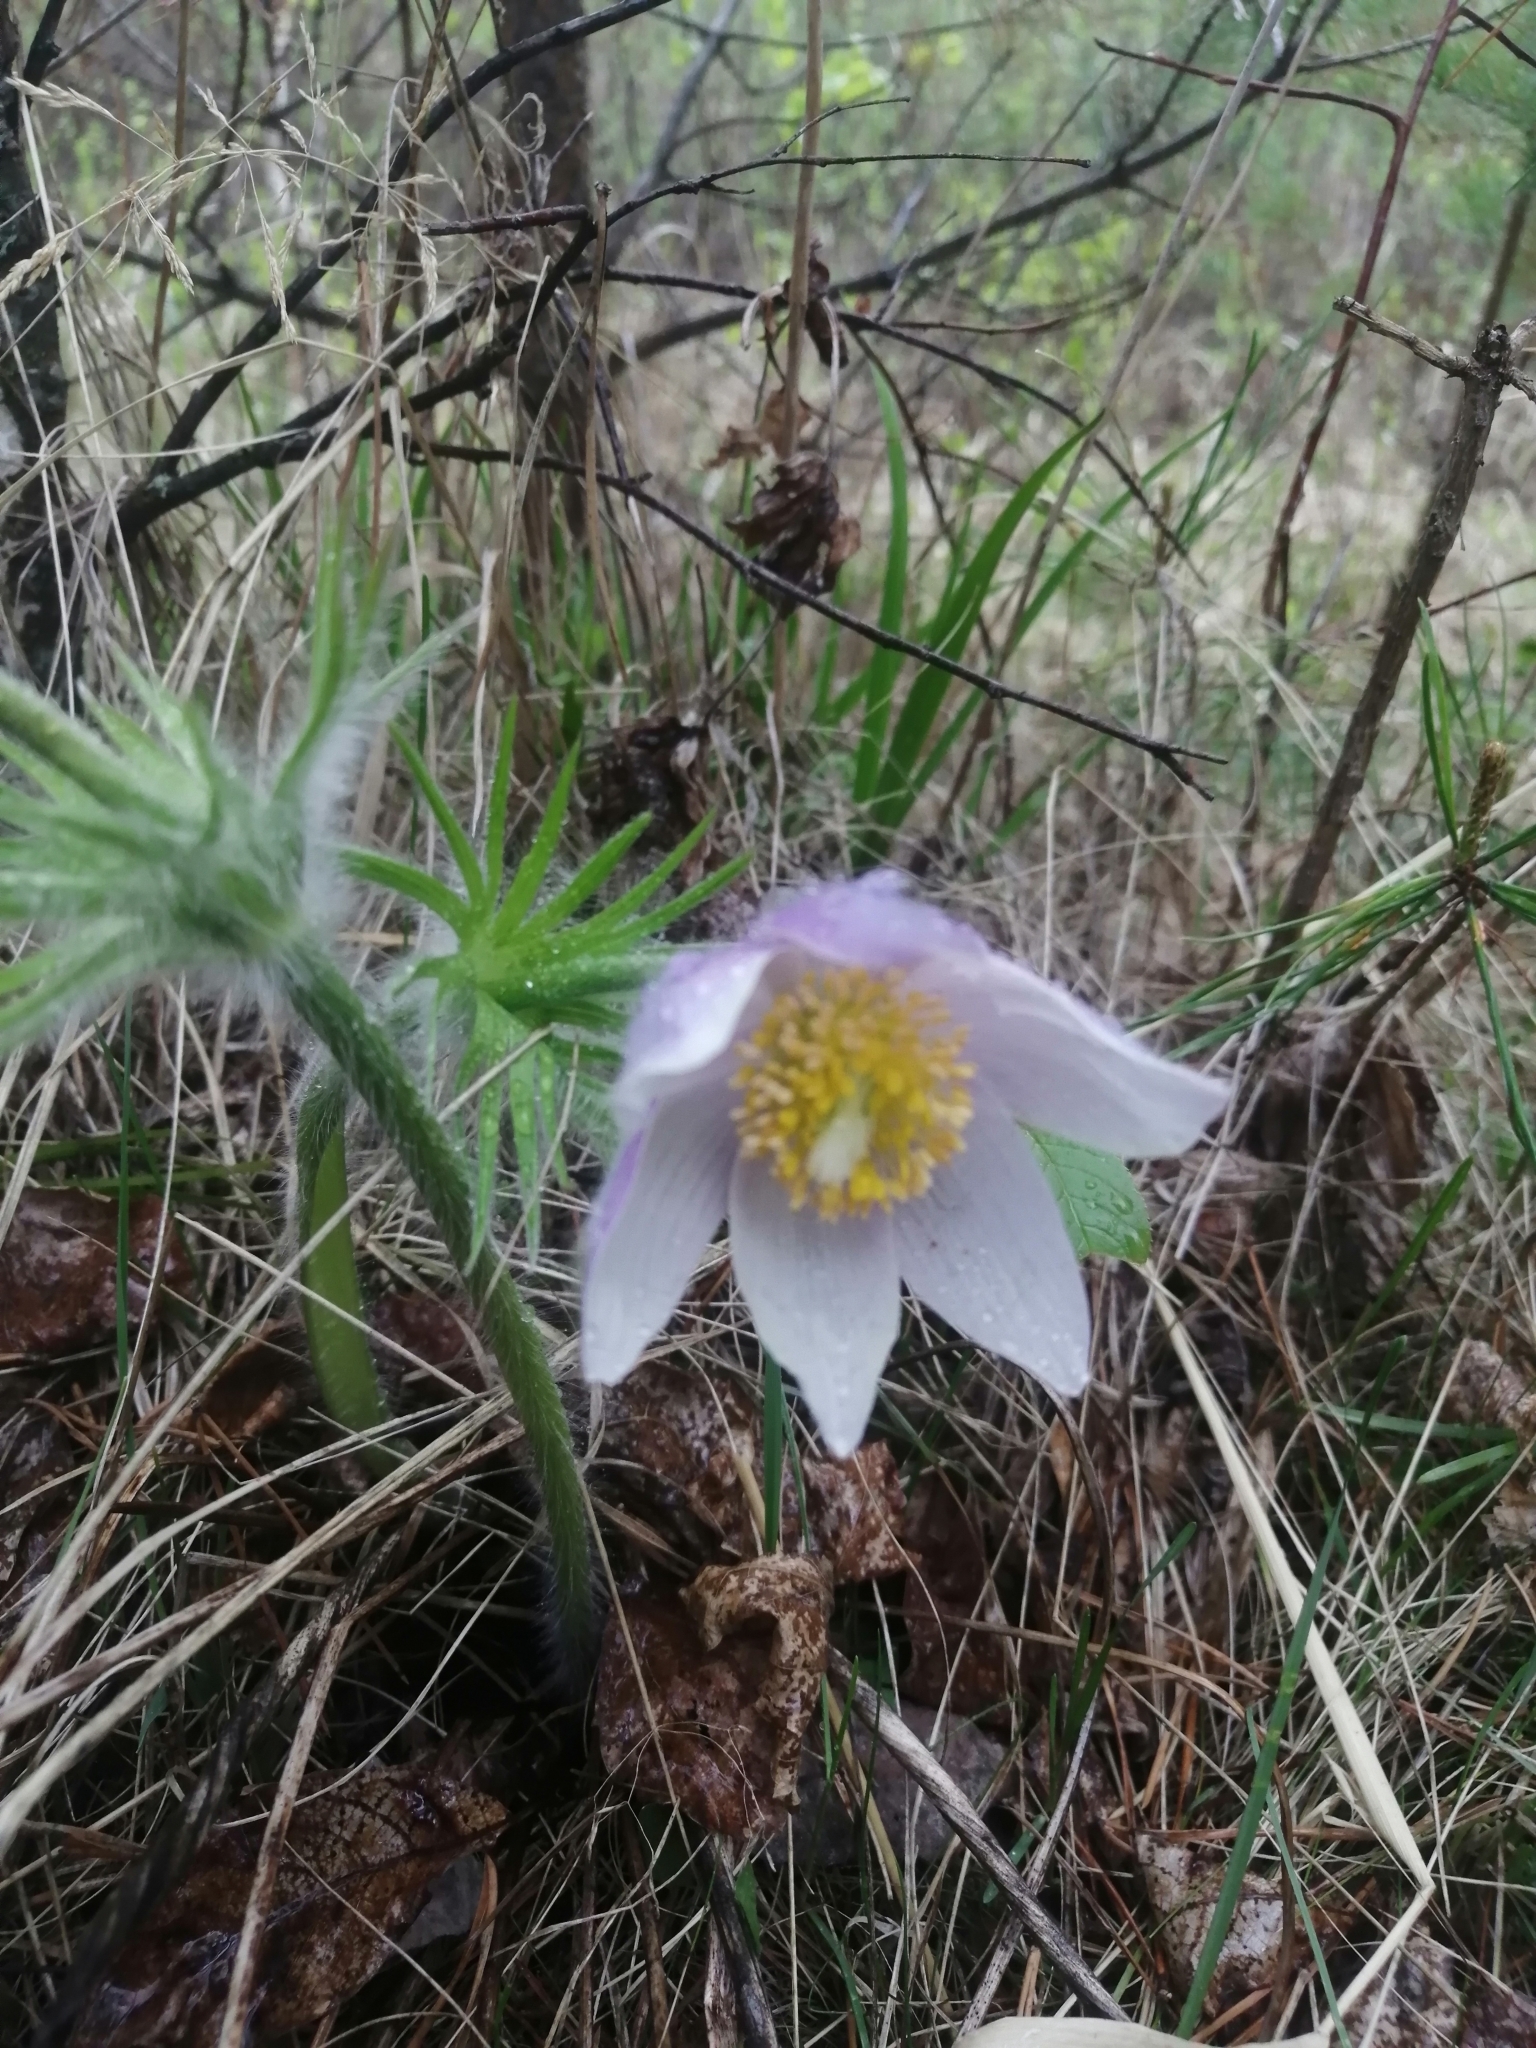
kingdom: Plantae
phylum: Tracheophyta
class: Magnoliopsida
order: Ranunculales
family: Ranunculaceae
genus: Pulsatilla
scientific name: Pulsatilla patens
